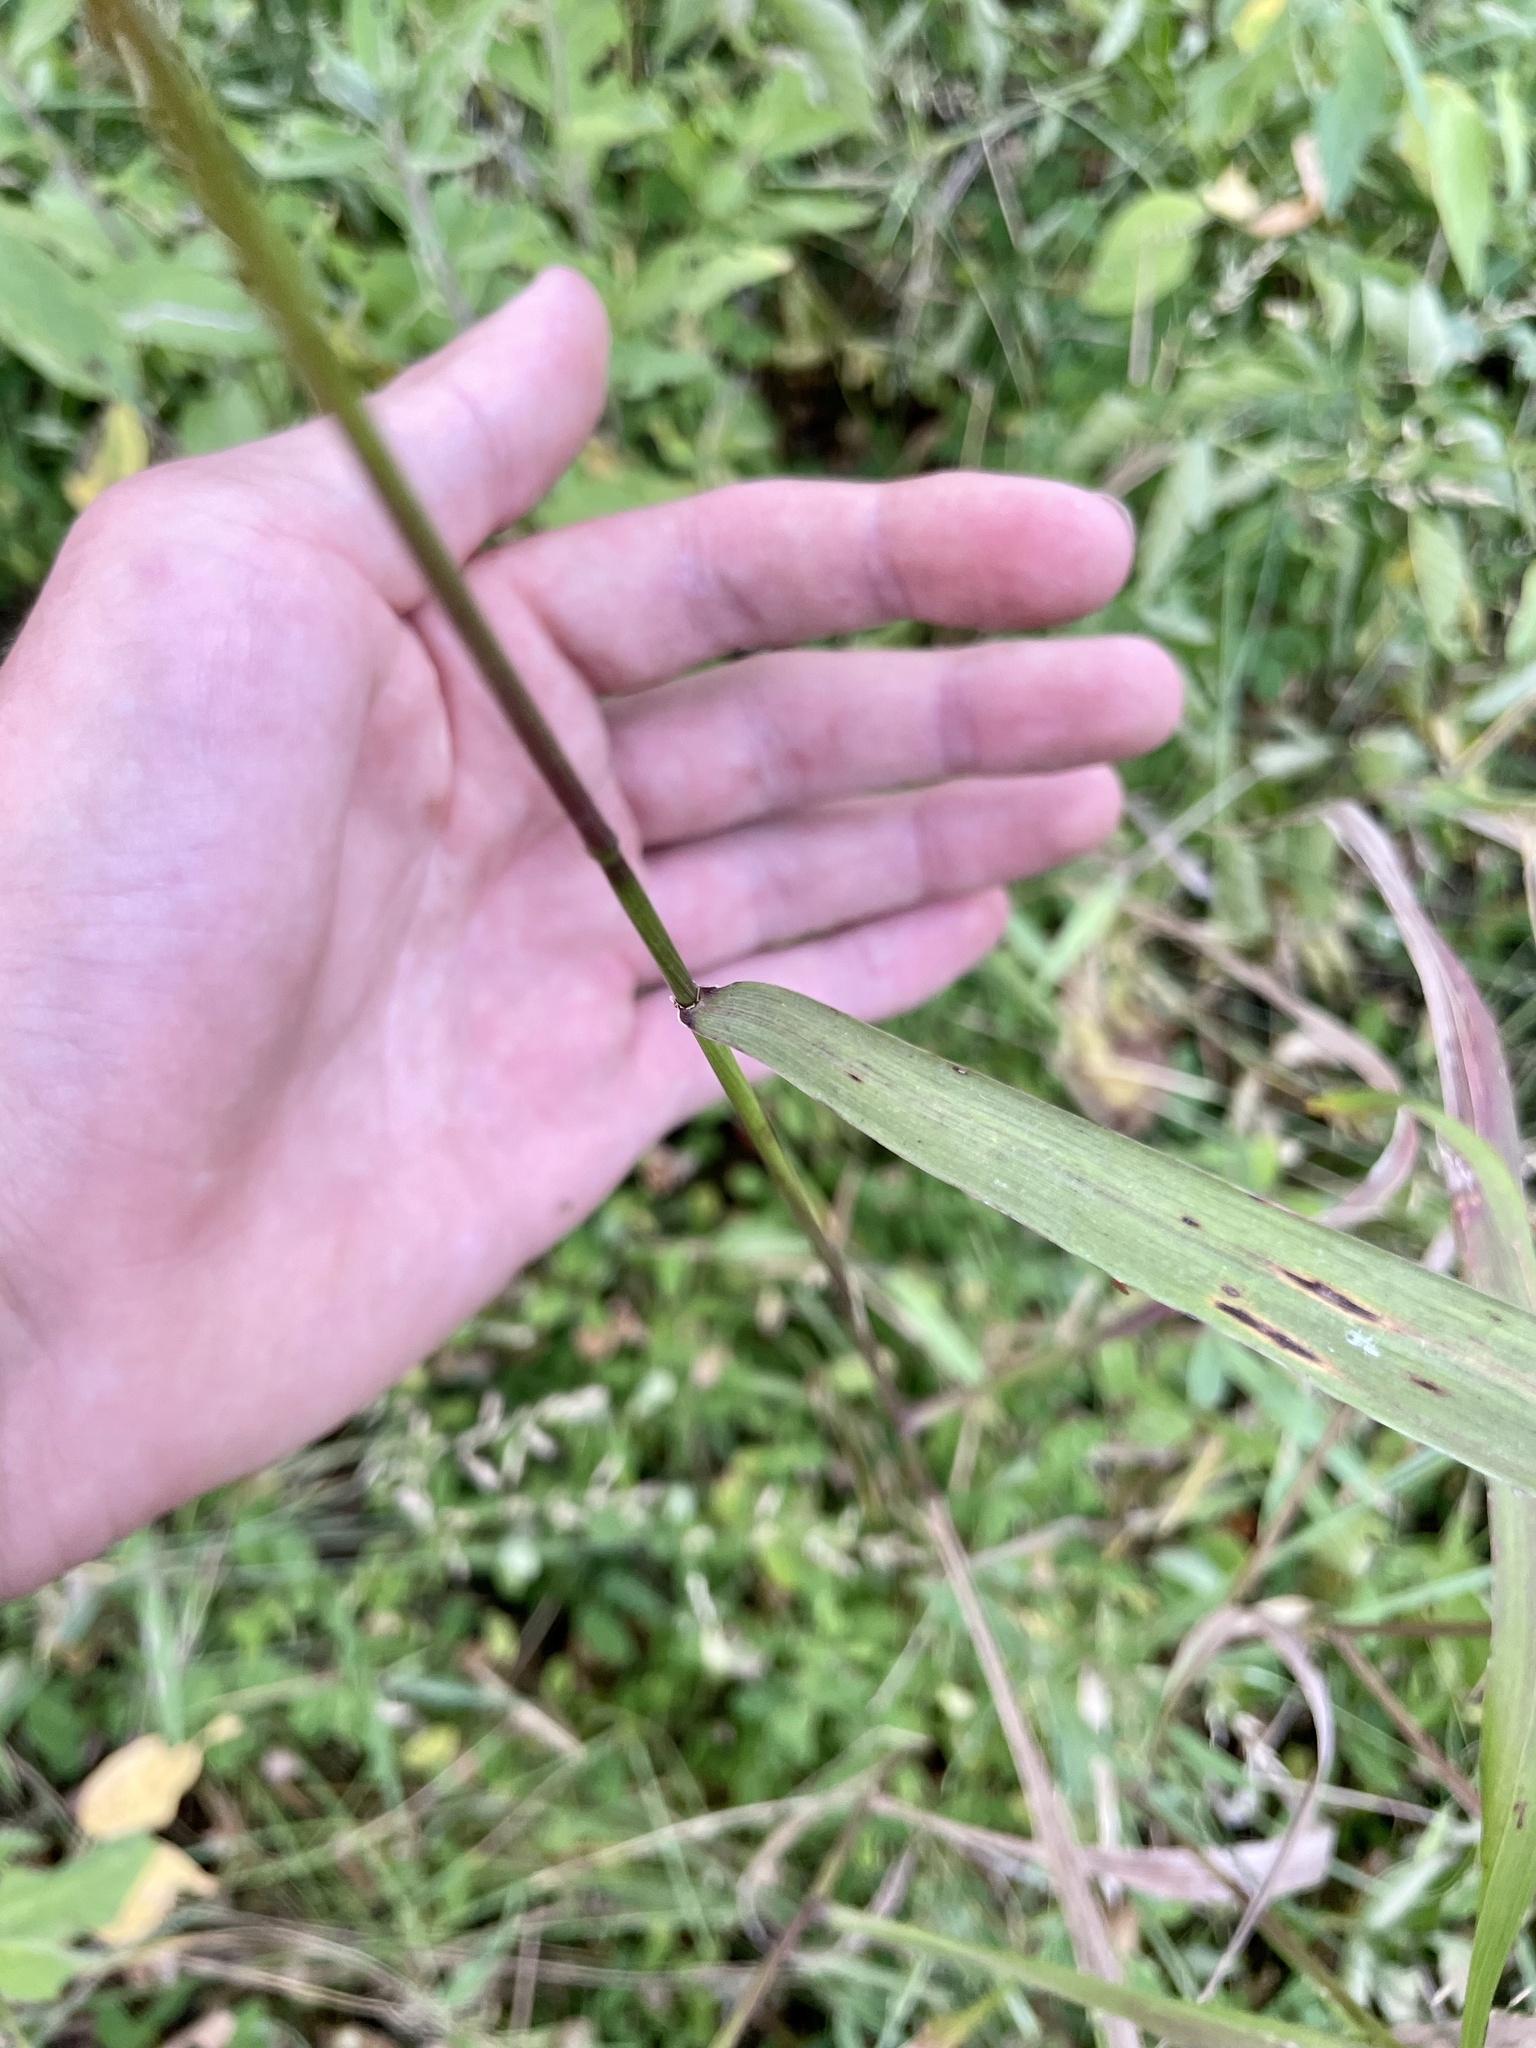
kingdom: Plantae
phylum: Tracheophyta
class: Liliopsida
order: Poales
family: Poaceae
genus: Elymus
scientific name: Elymus hystrix
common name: Bottlebrush grass
